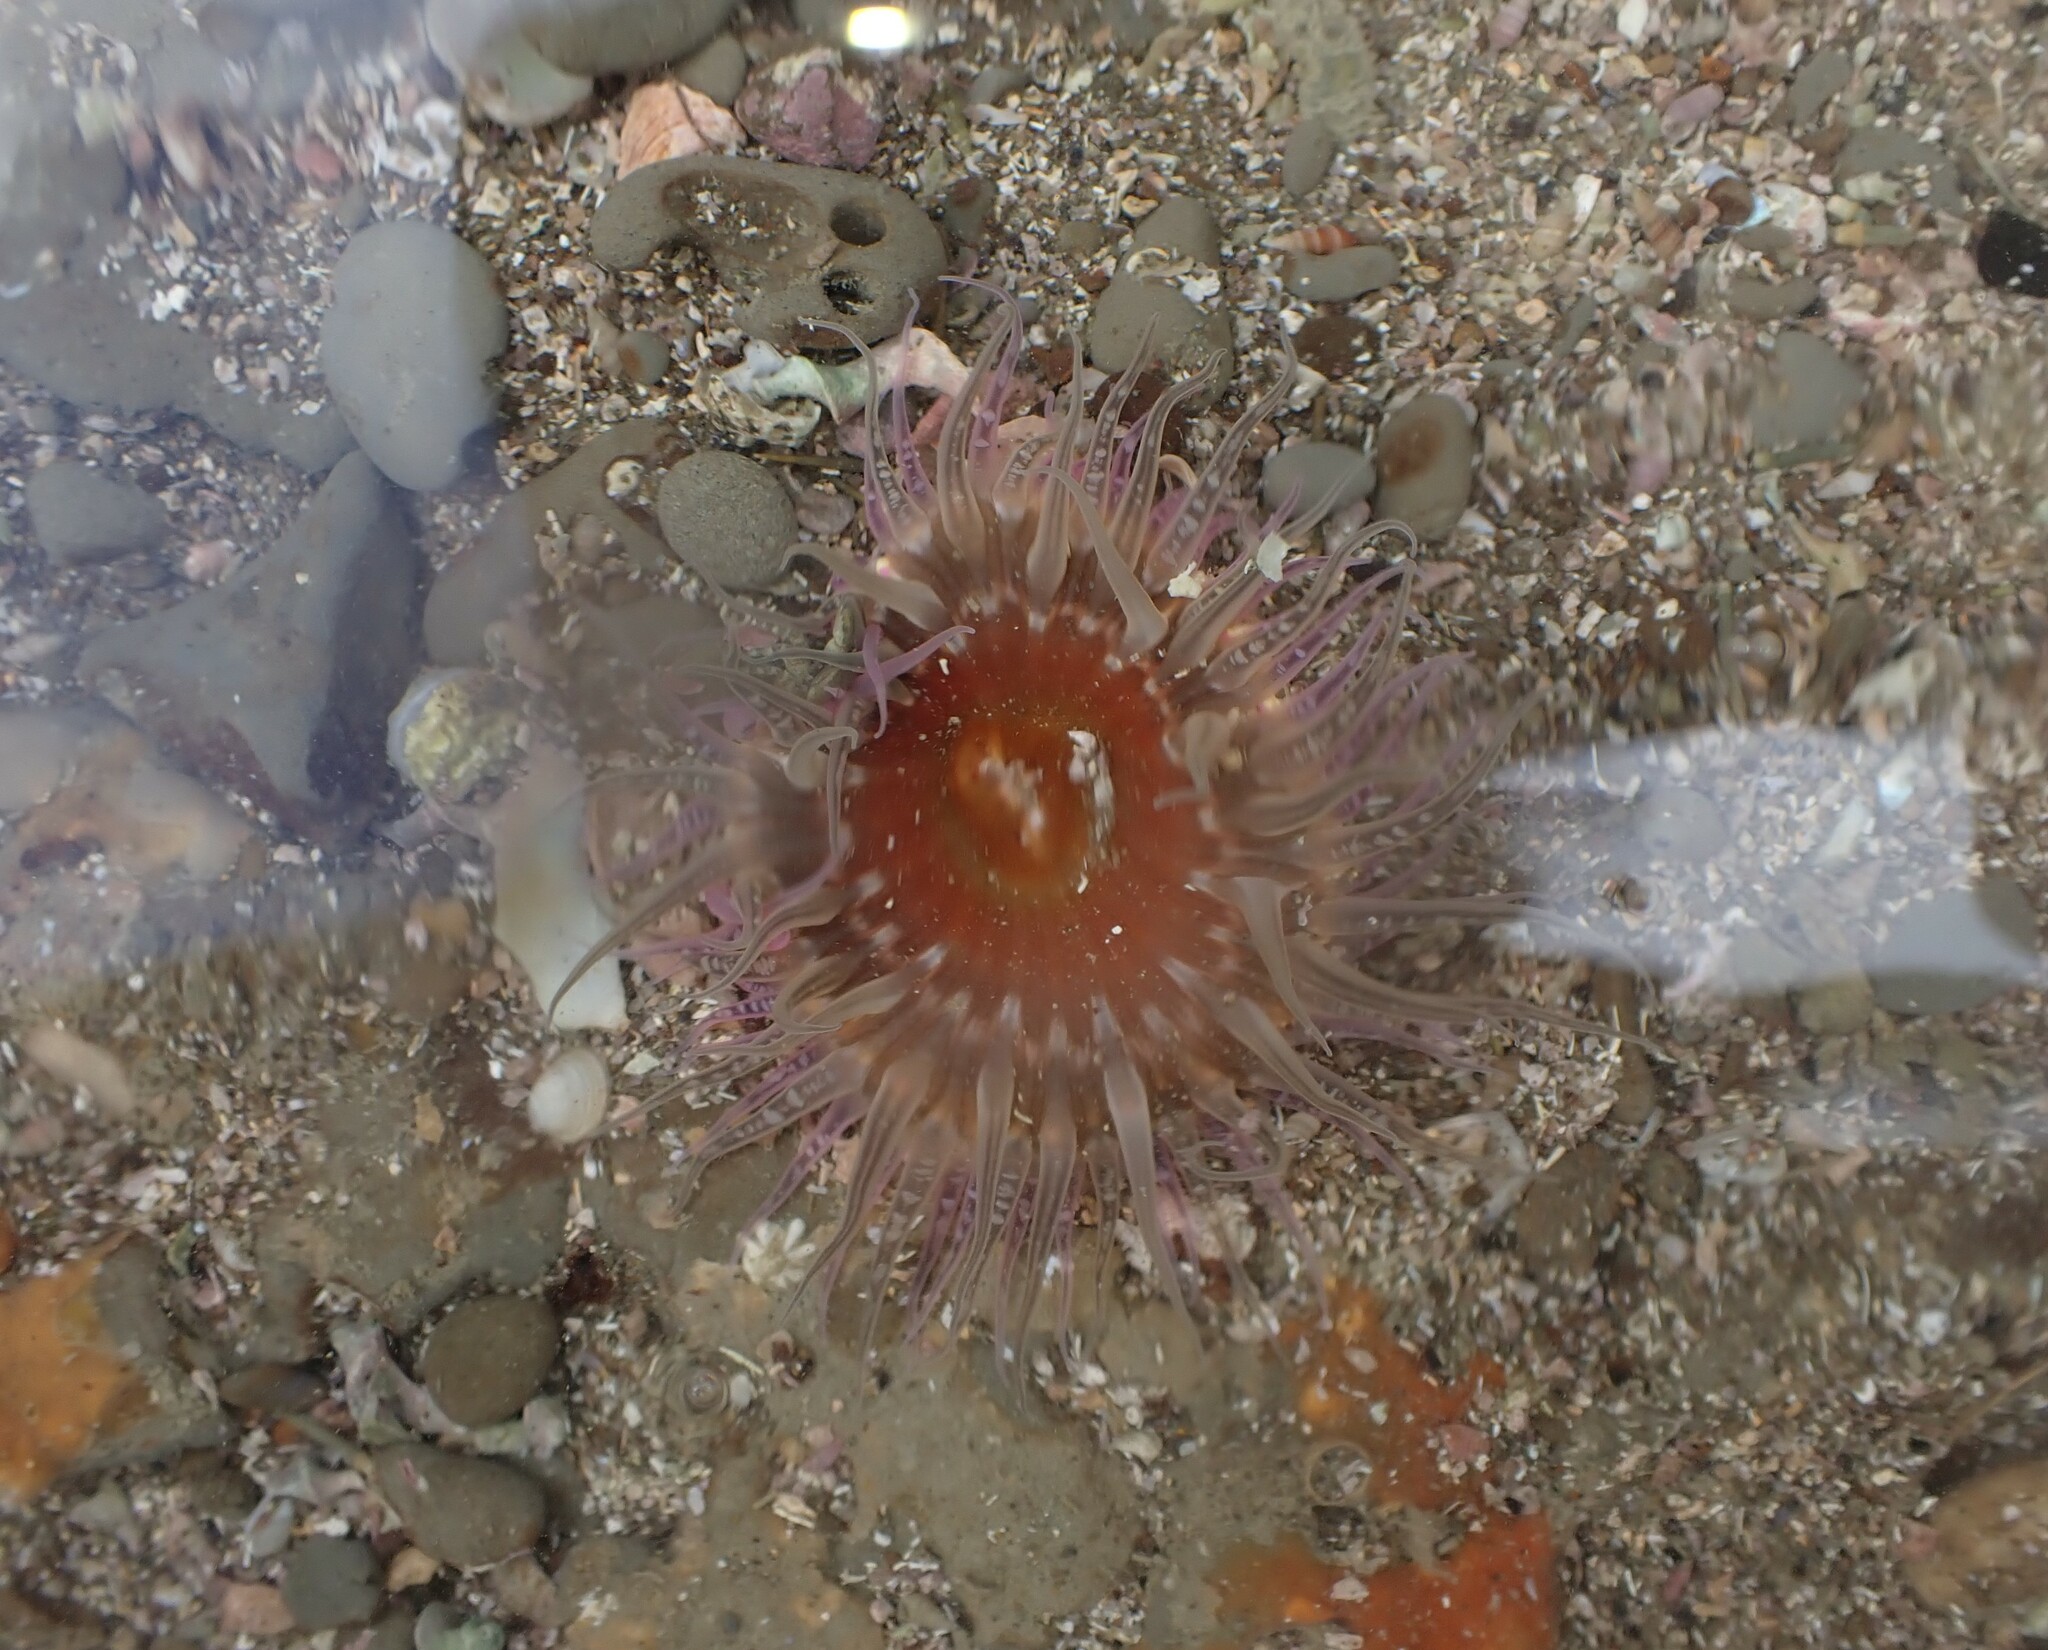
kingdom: Animalia
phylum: Cnidaria
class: Anthozoa
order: Actiniaria
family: Actiniidae
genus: Oulactis
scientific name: Oulactis muscosa
